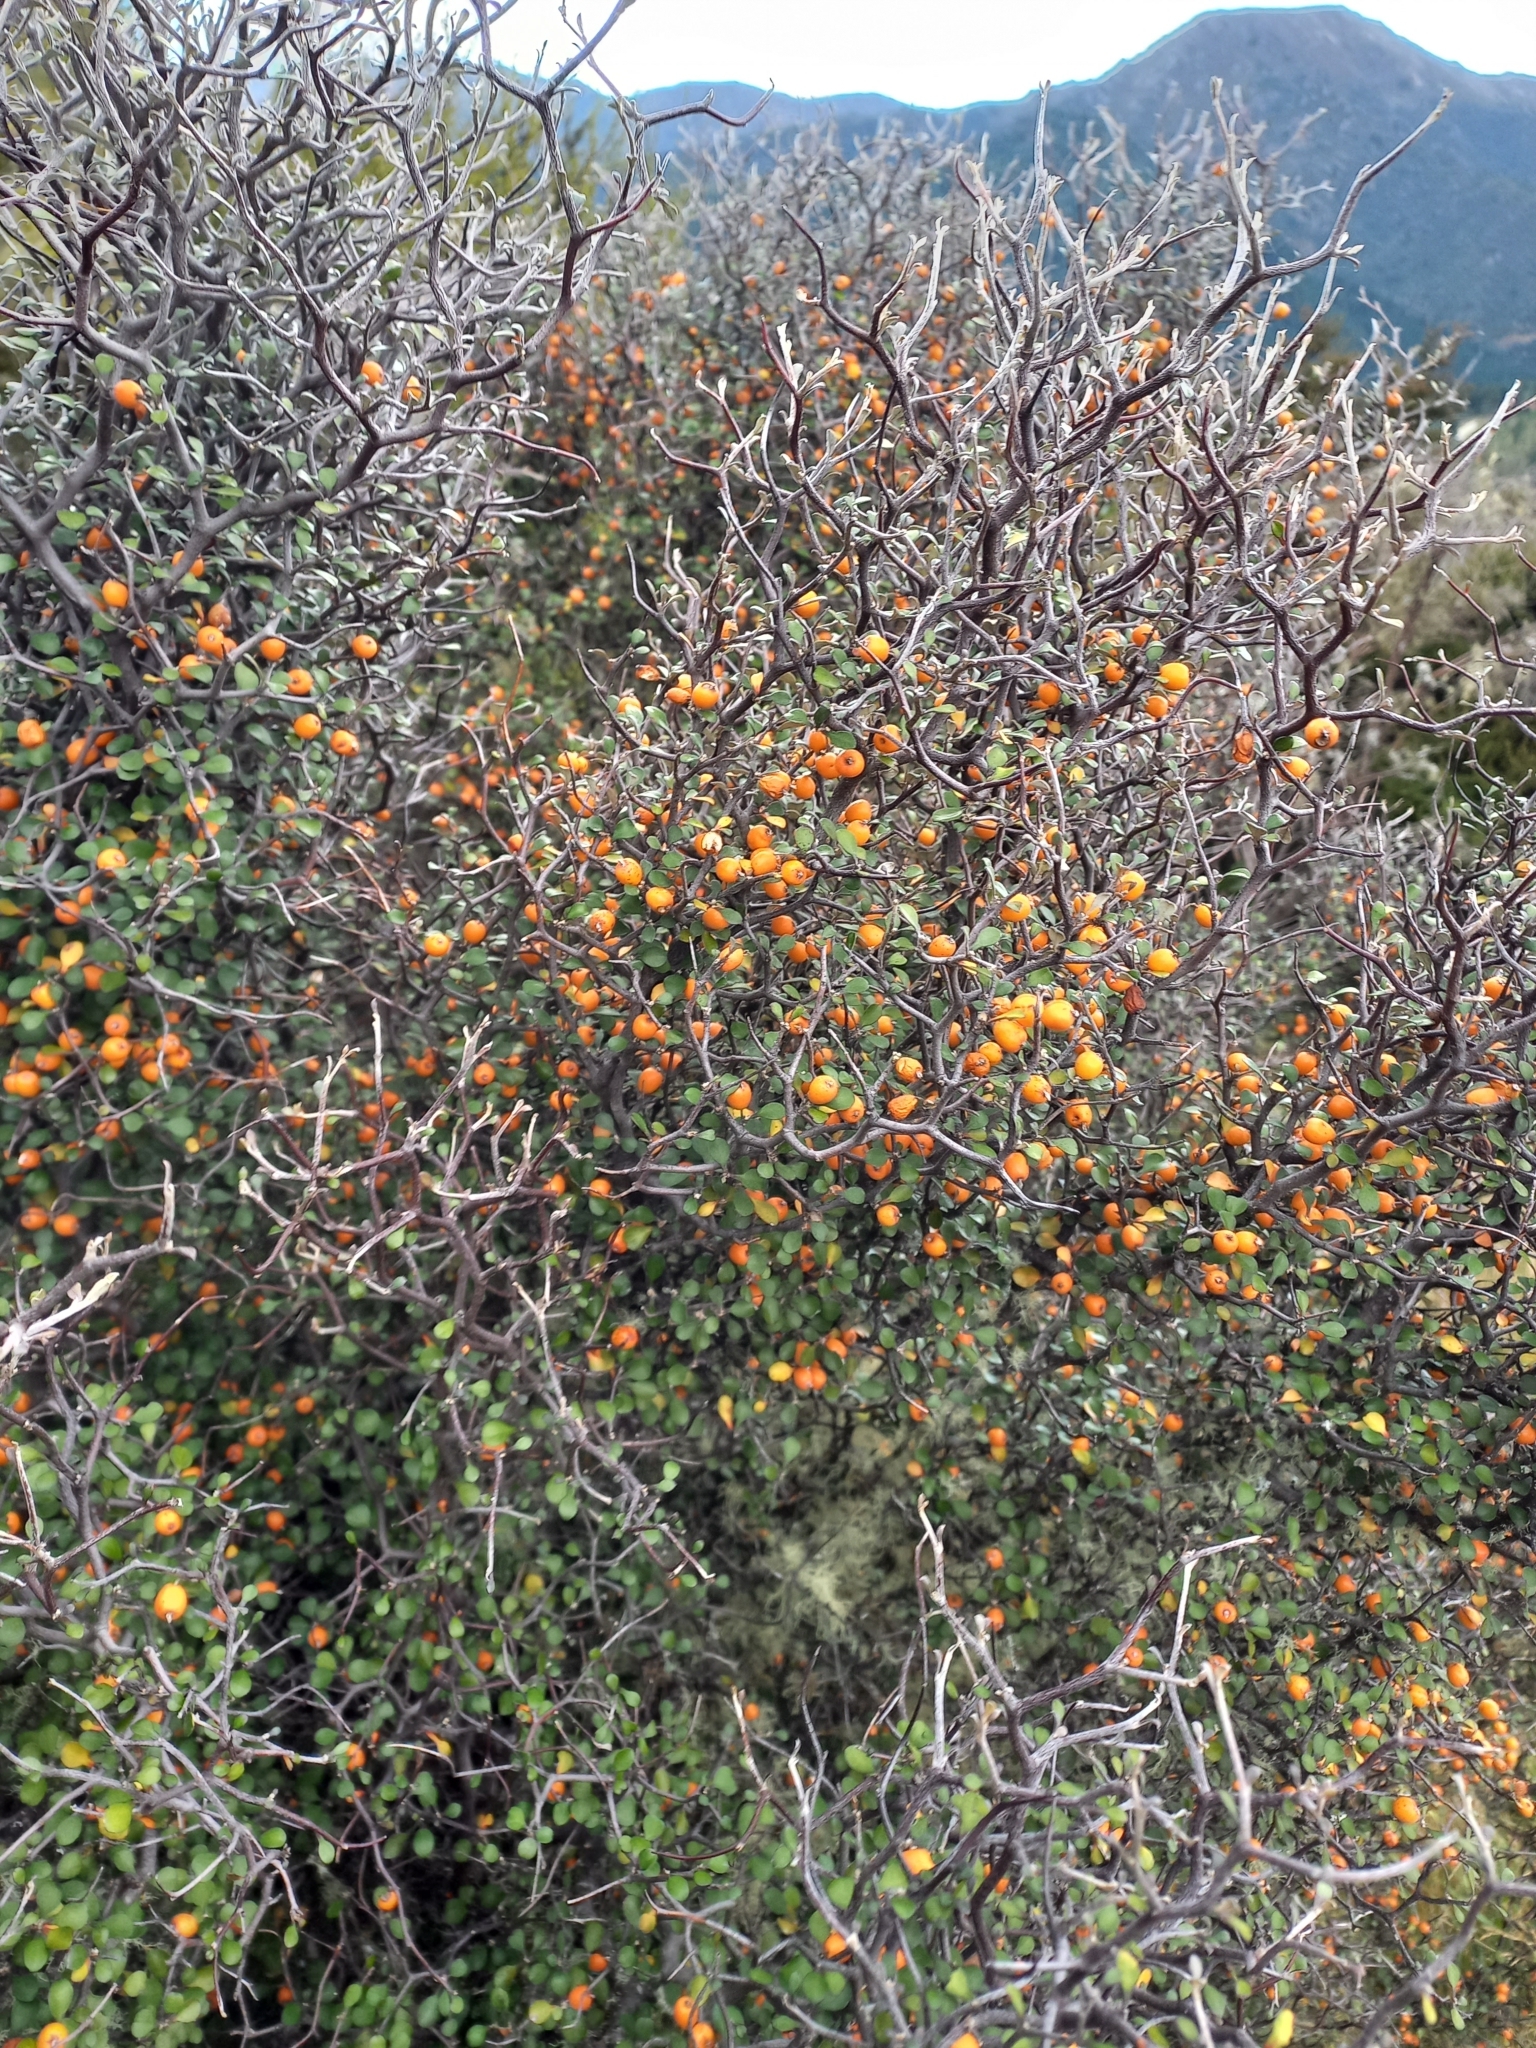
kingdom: Plantae
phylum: Tracheophyta
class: Magnoliopsida
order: Asterales
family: Argophyllaceae
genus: Corokia
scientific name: Corokia cotoneaster
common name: Wire nettingbush
